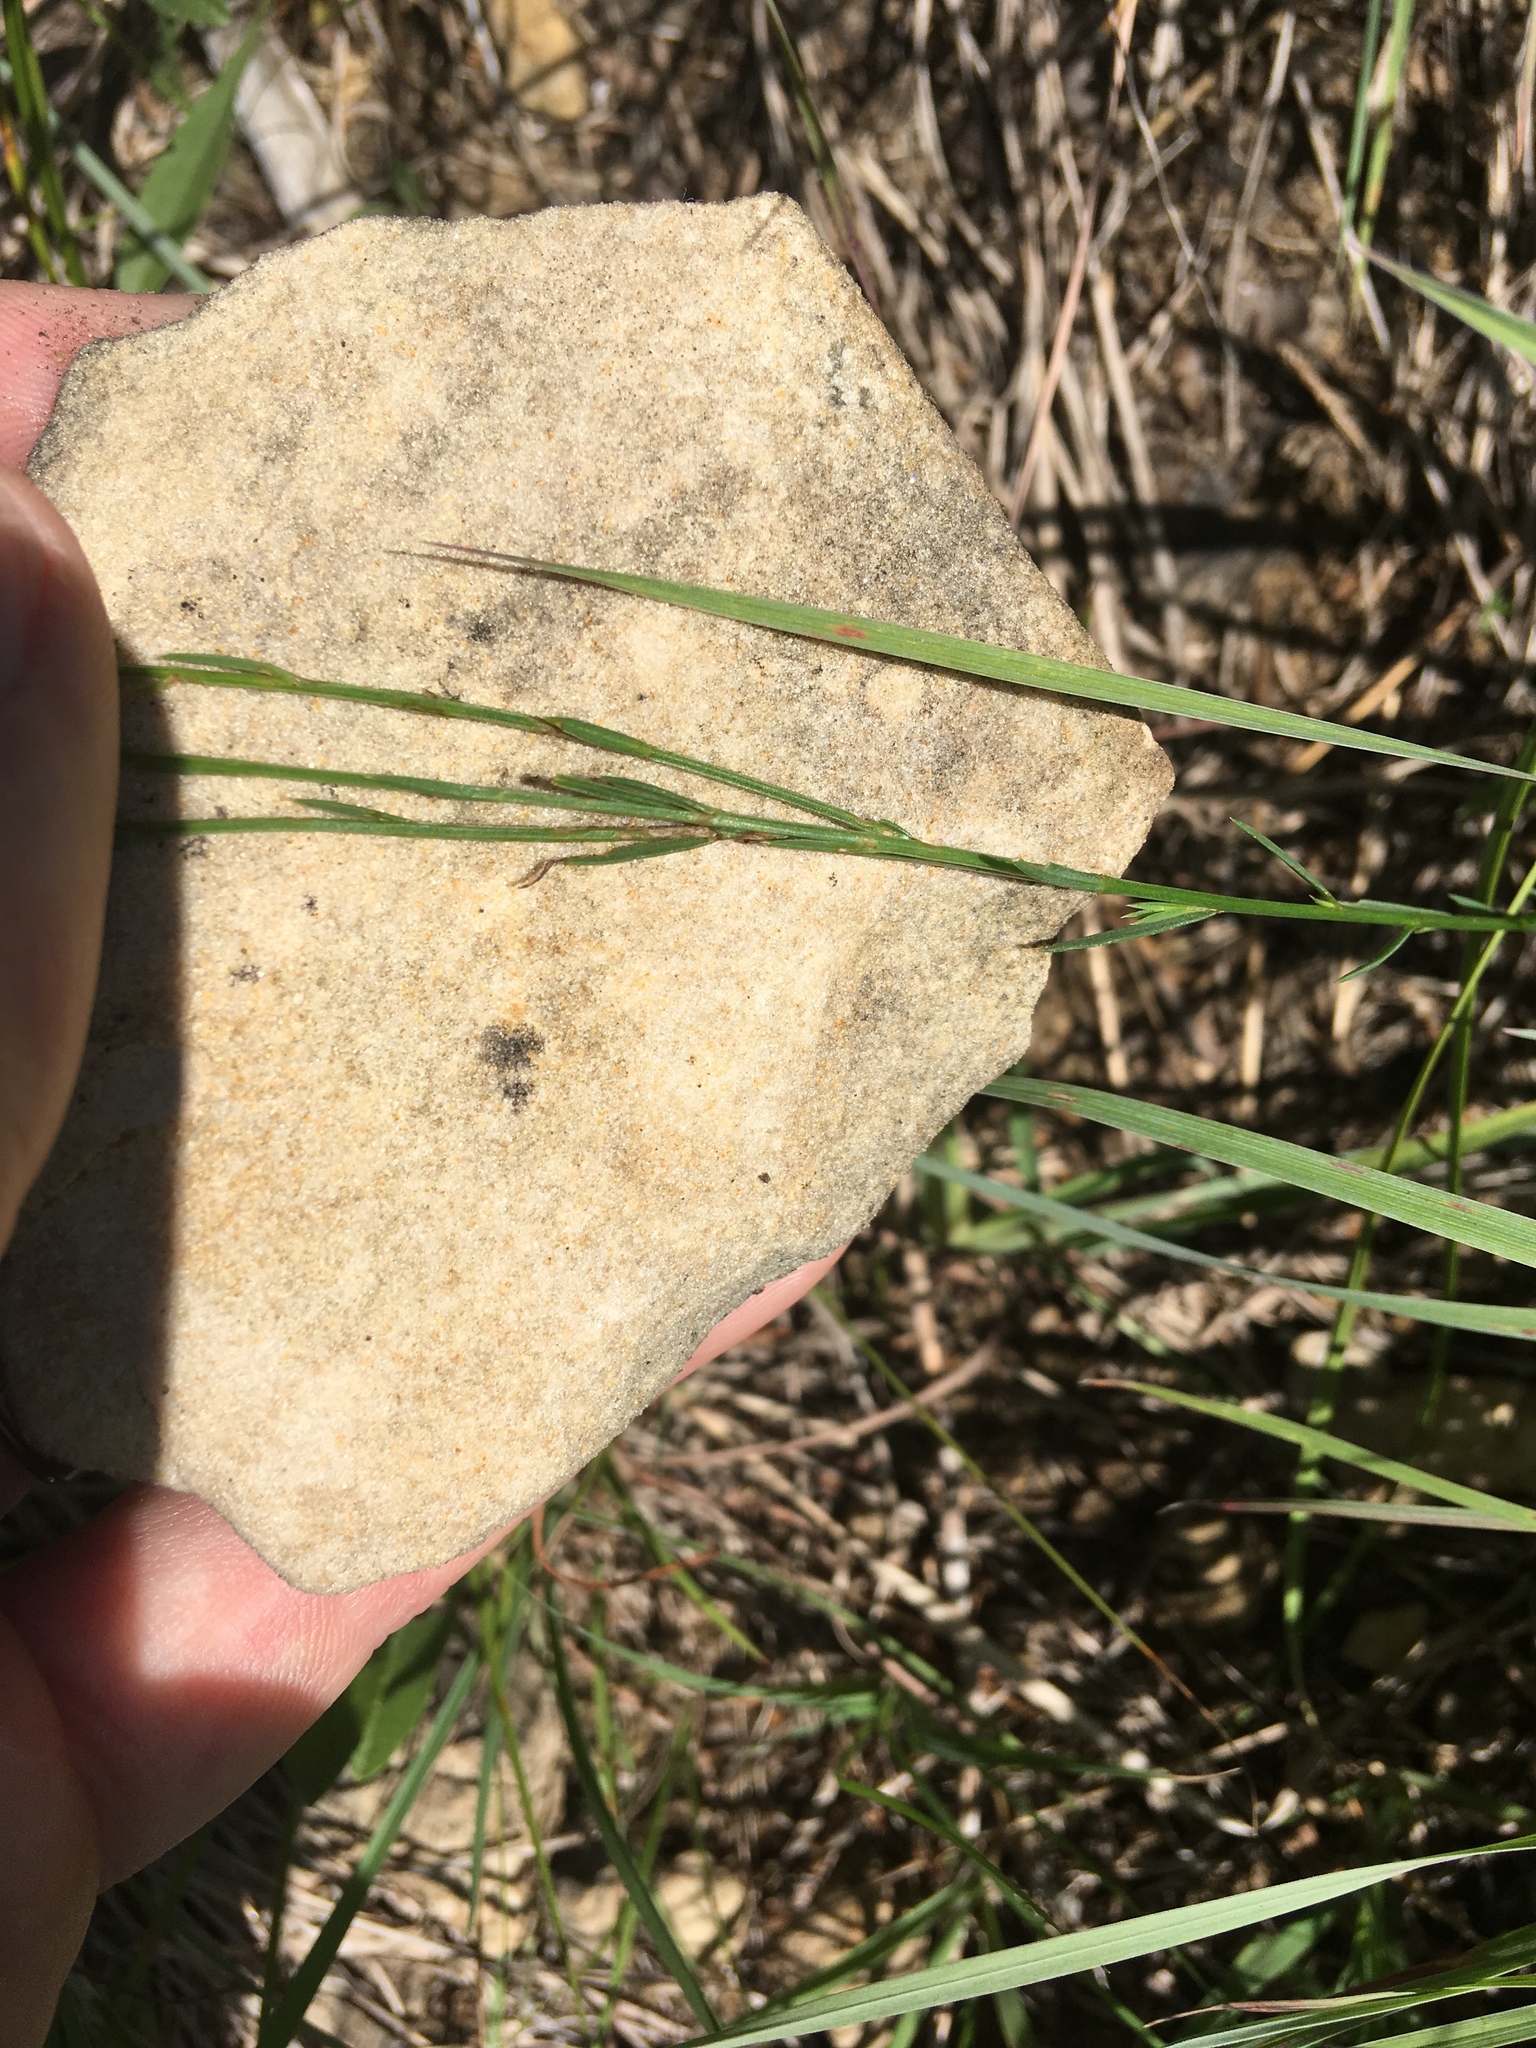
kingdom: Plantae
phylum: Tracheophyta
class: Magnoliopsida
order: Malpighiales
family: Linaceae
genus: Linum
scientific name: Linum sulcatum
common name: Grooved flax
